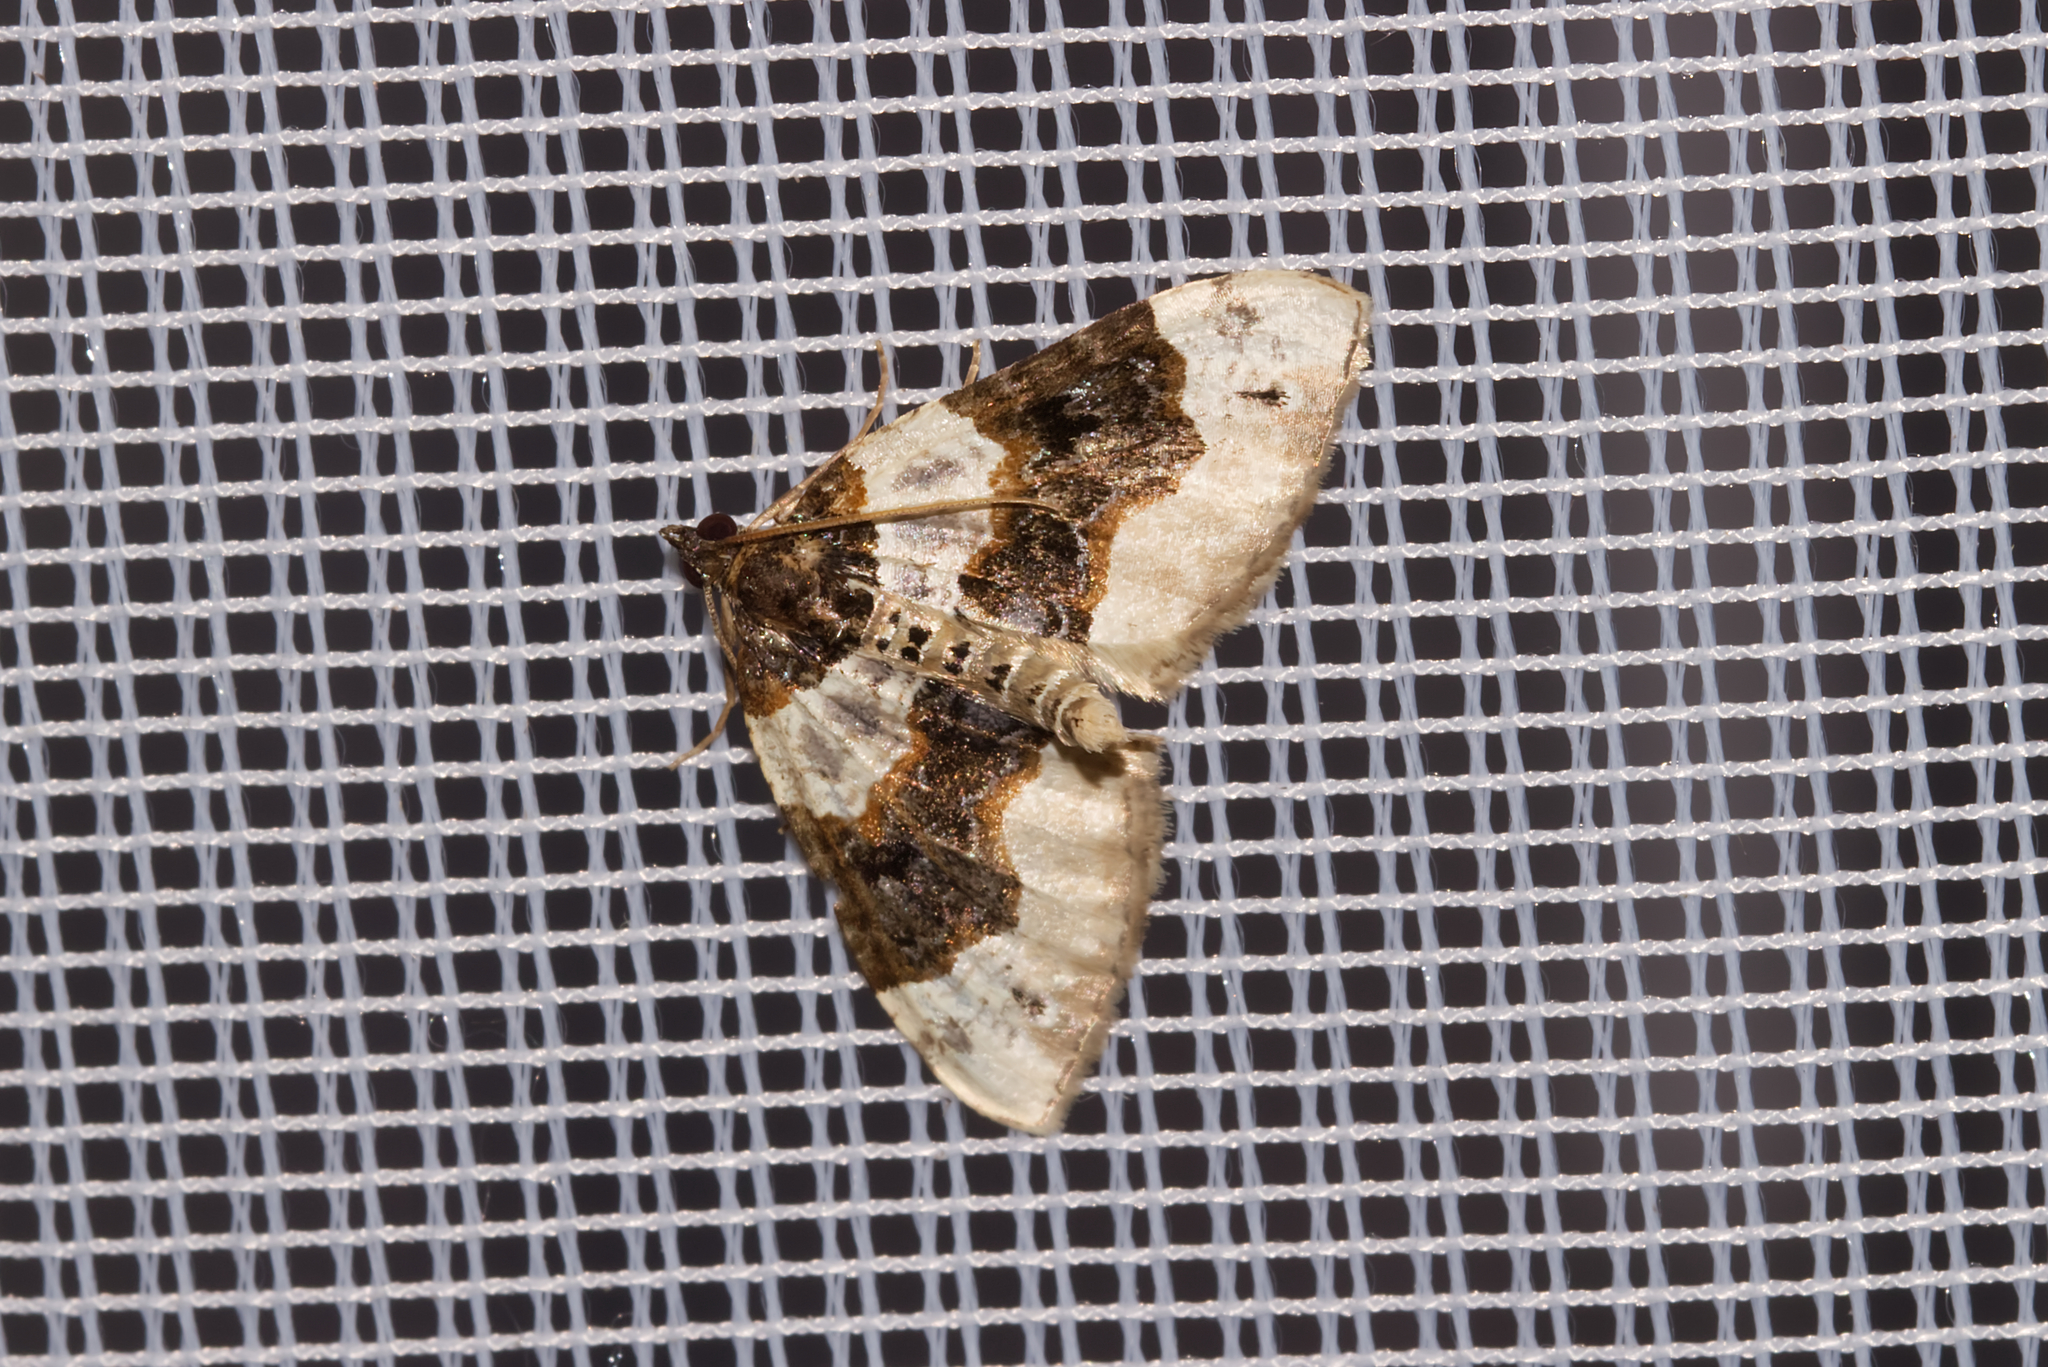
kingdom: Animalia
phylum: Arthropoda
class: Insecta
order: Lepidoptera
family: Geometridae
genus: Cosmorhoe
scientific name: Cosmorhoe ocellata
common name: Purple bar
